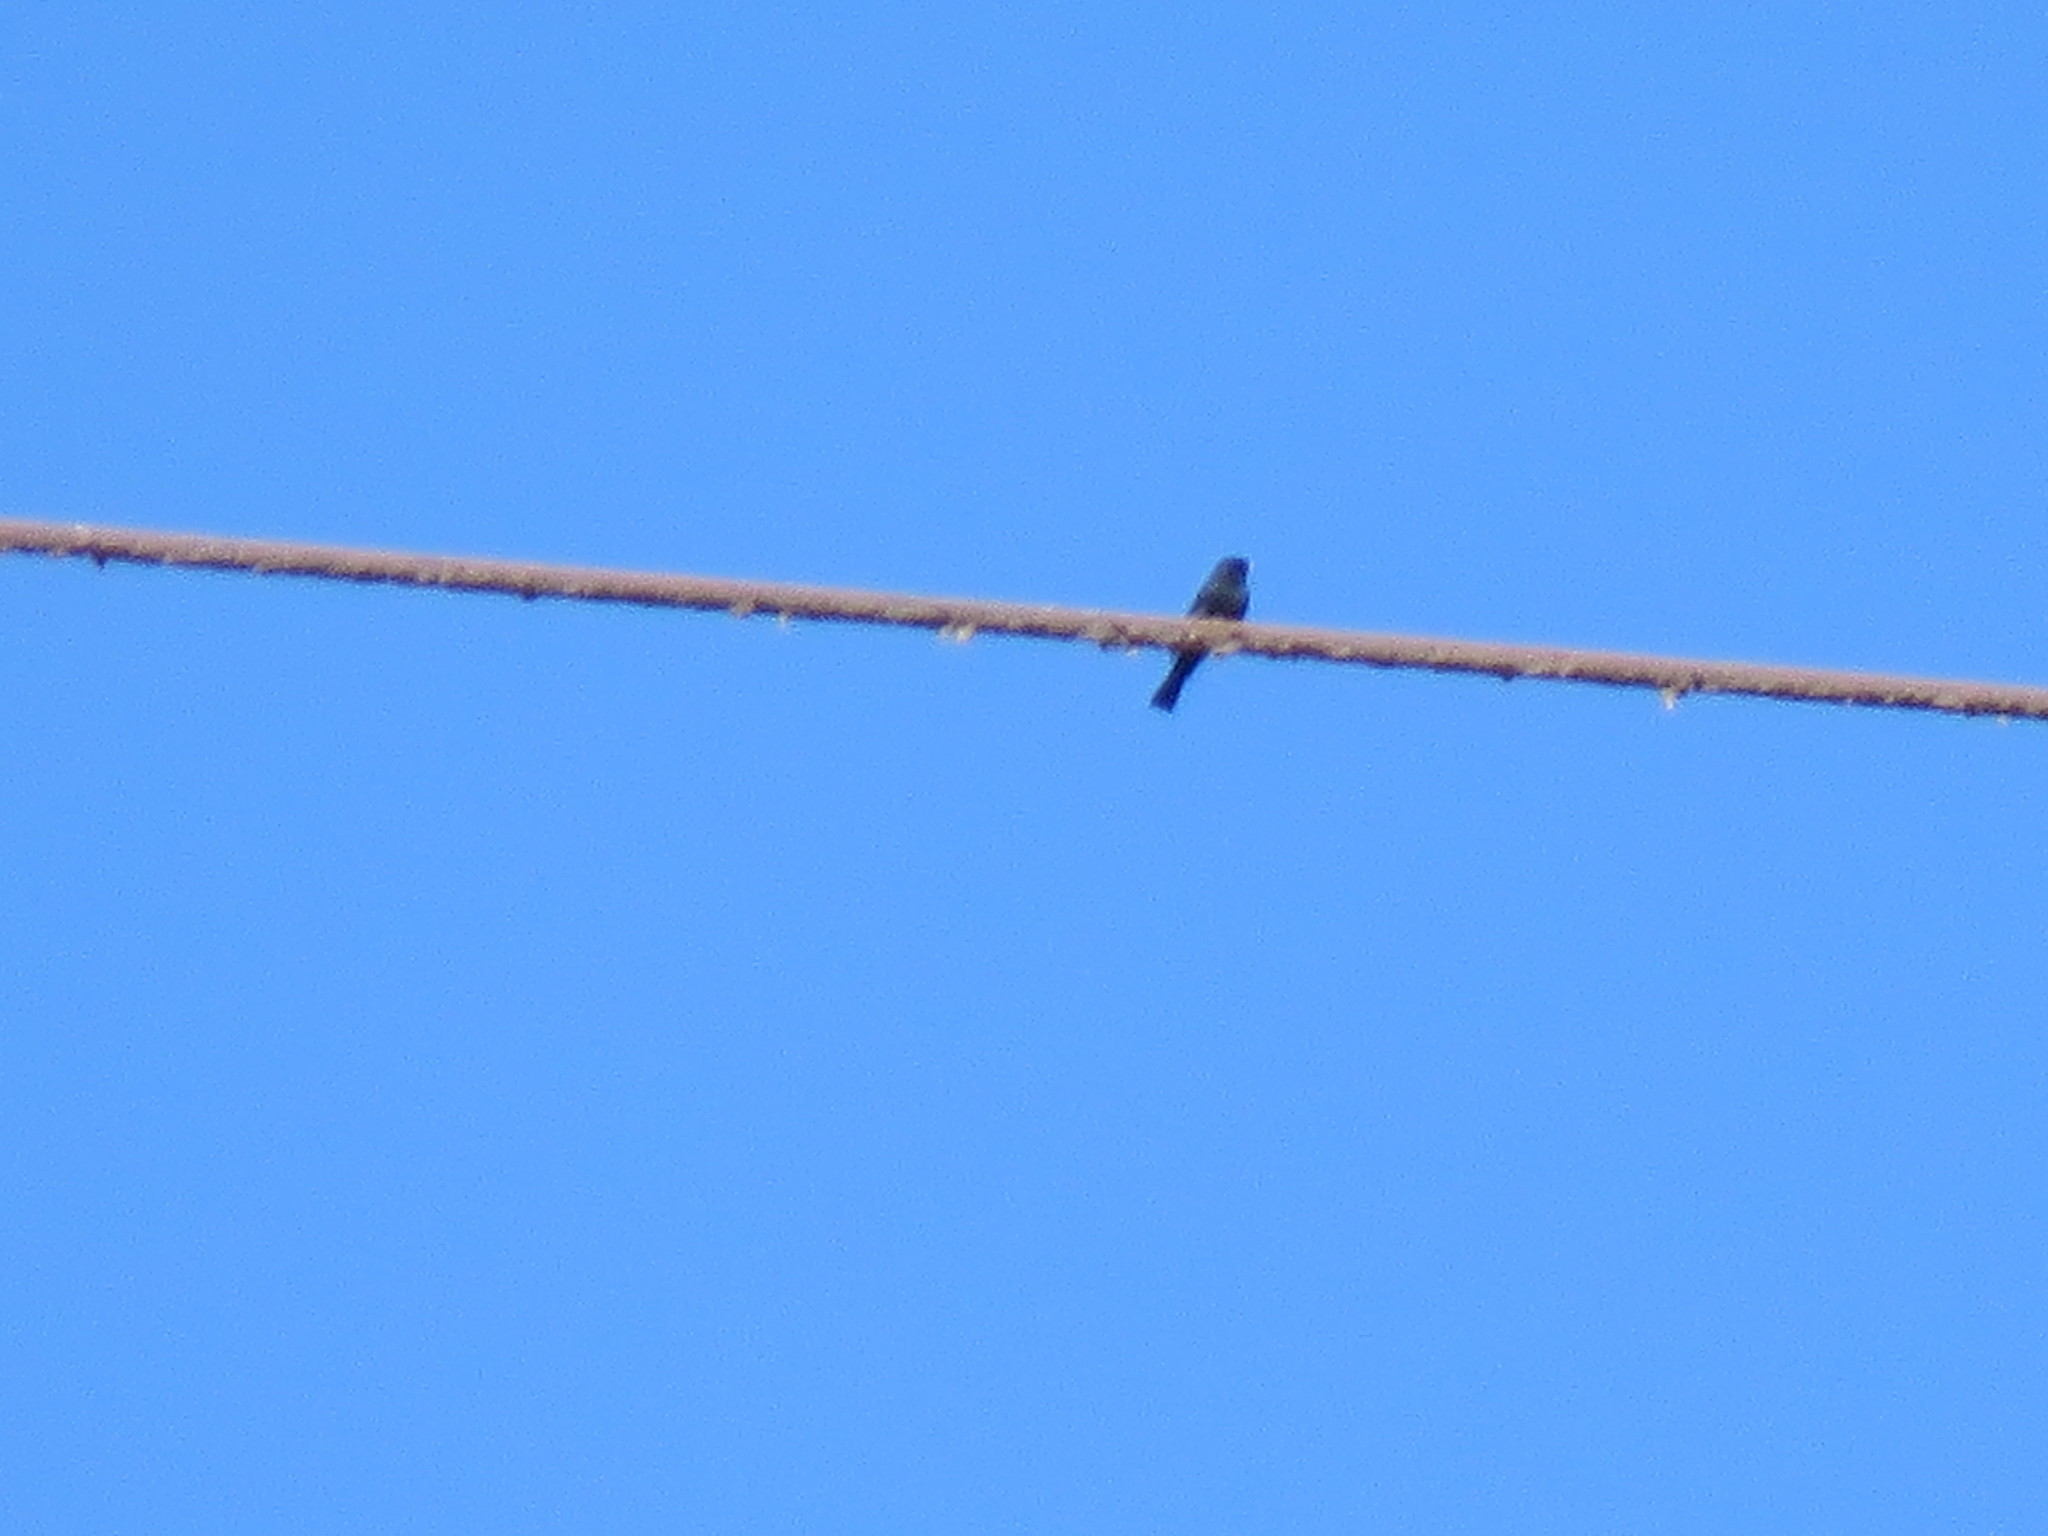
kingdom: Animalia
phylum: Chordata
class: Aves
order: Passeriformes
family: Tyrannidae
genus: Knipolegus
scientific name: Knipolegus aterrimus
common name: White-winged black tyrant
